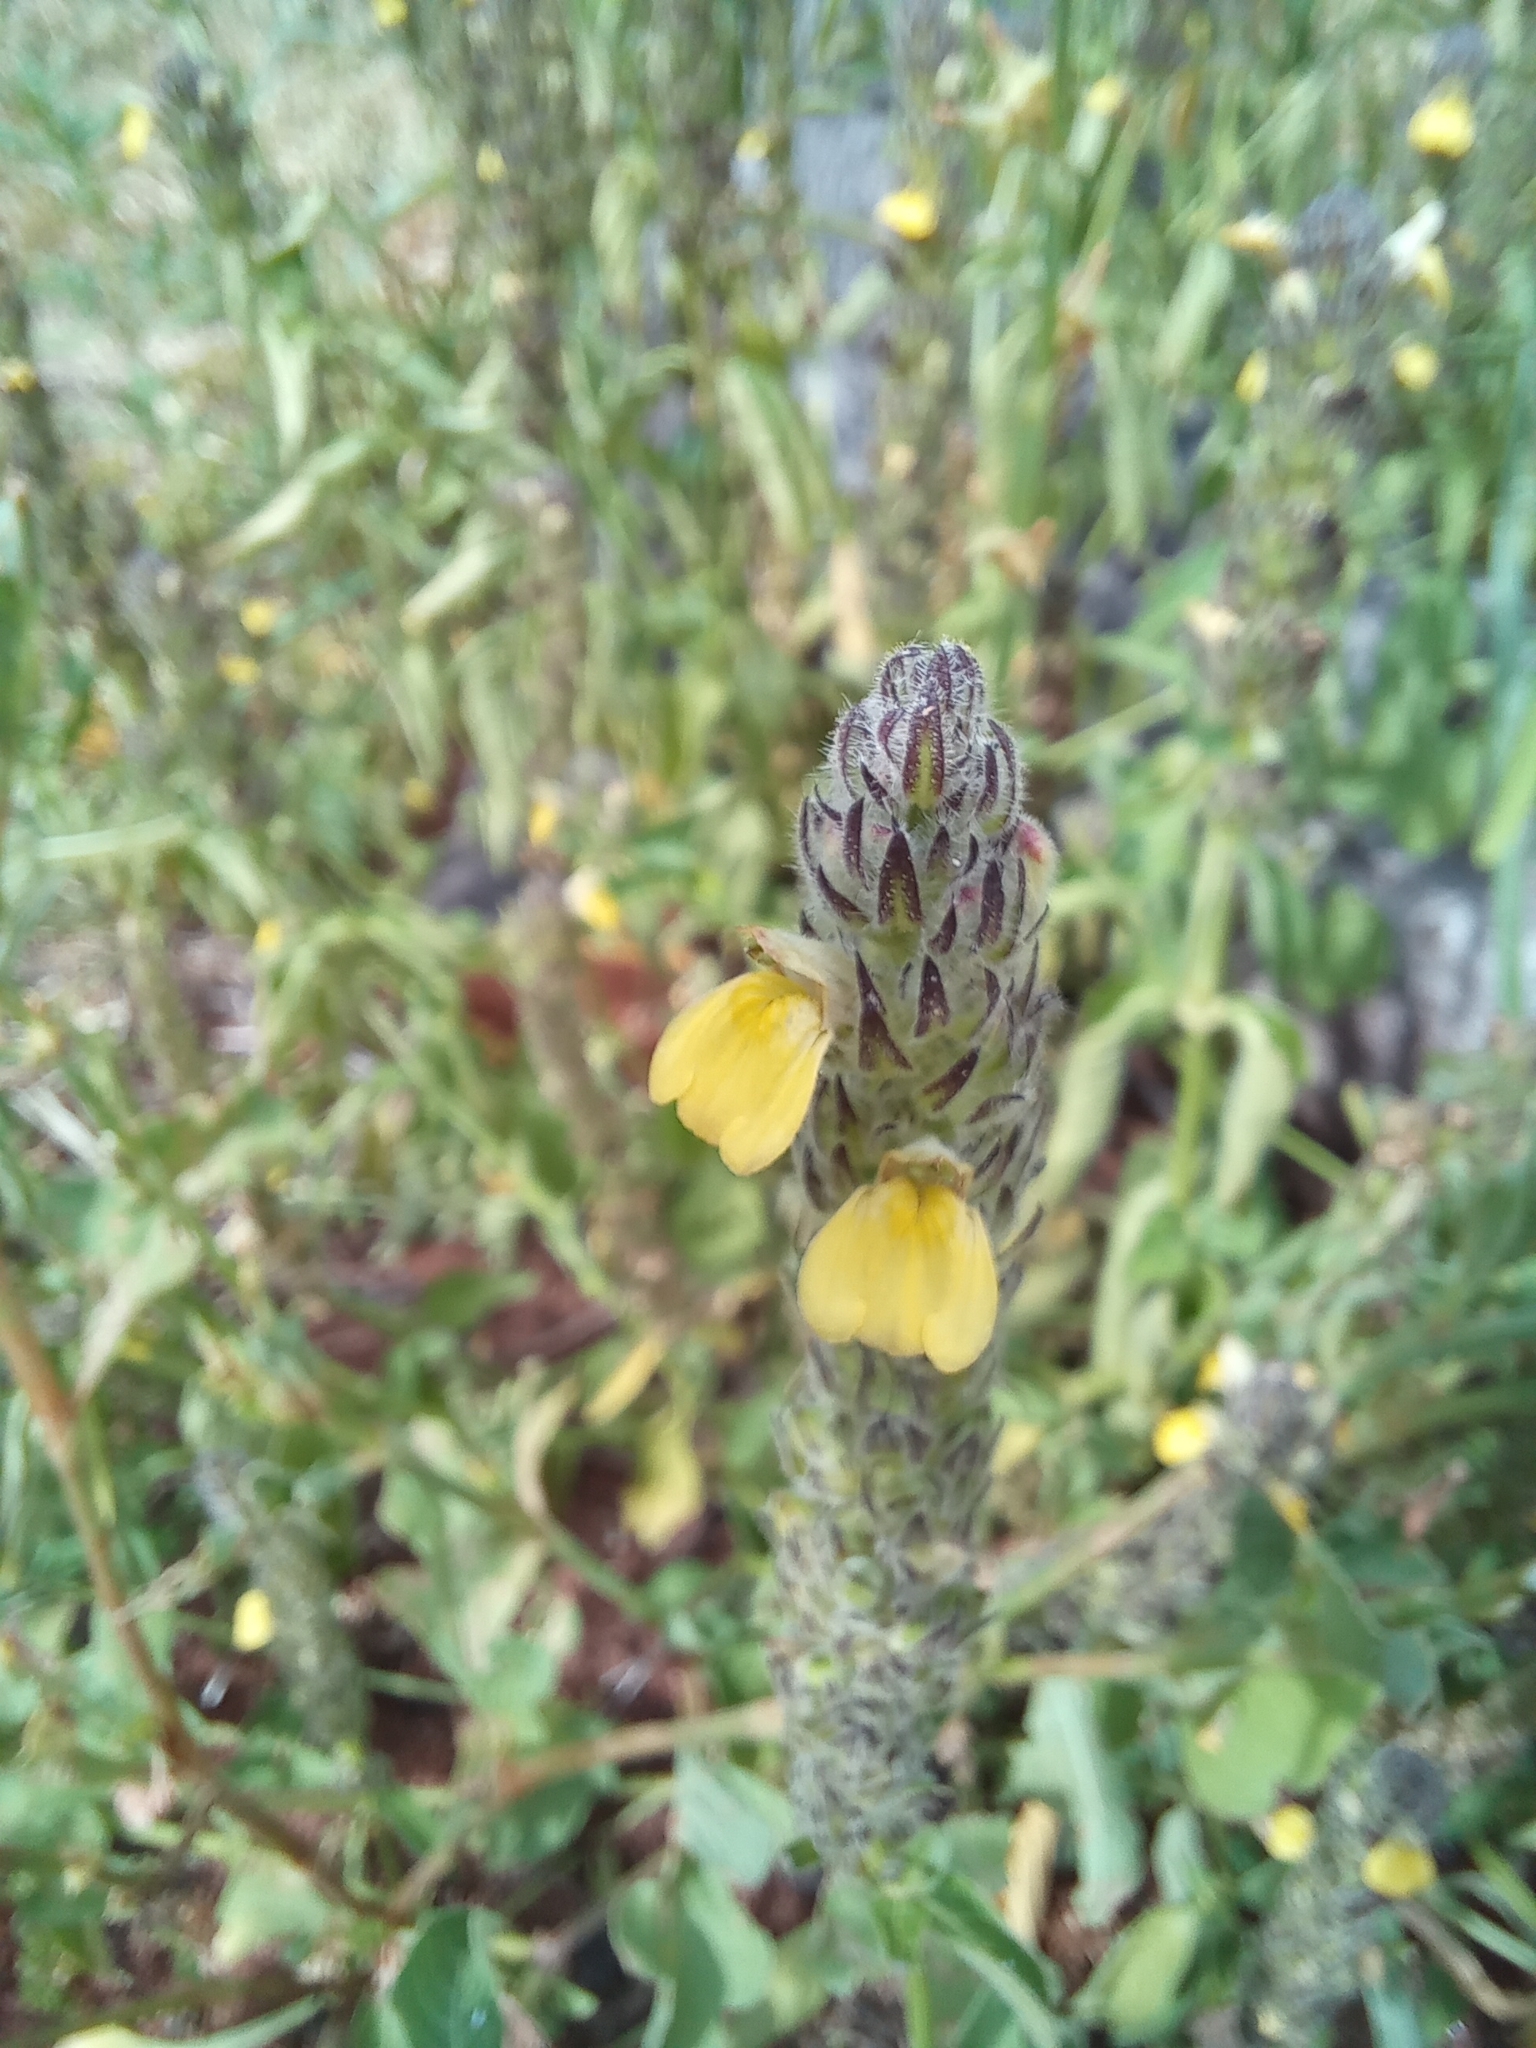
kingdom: Plantae
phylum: Tracheophyta
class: Magnoliopsida
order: Lamiales
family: Acanthaceae
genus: Justicia
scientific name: Justicia flava
